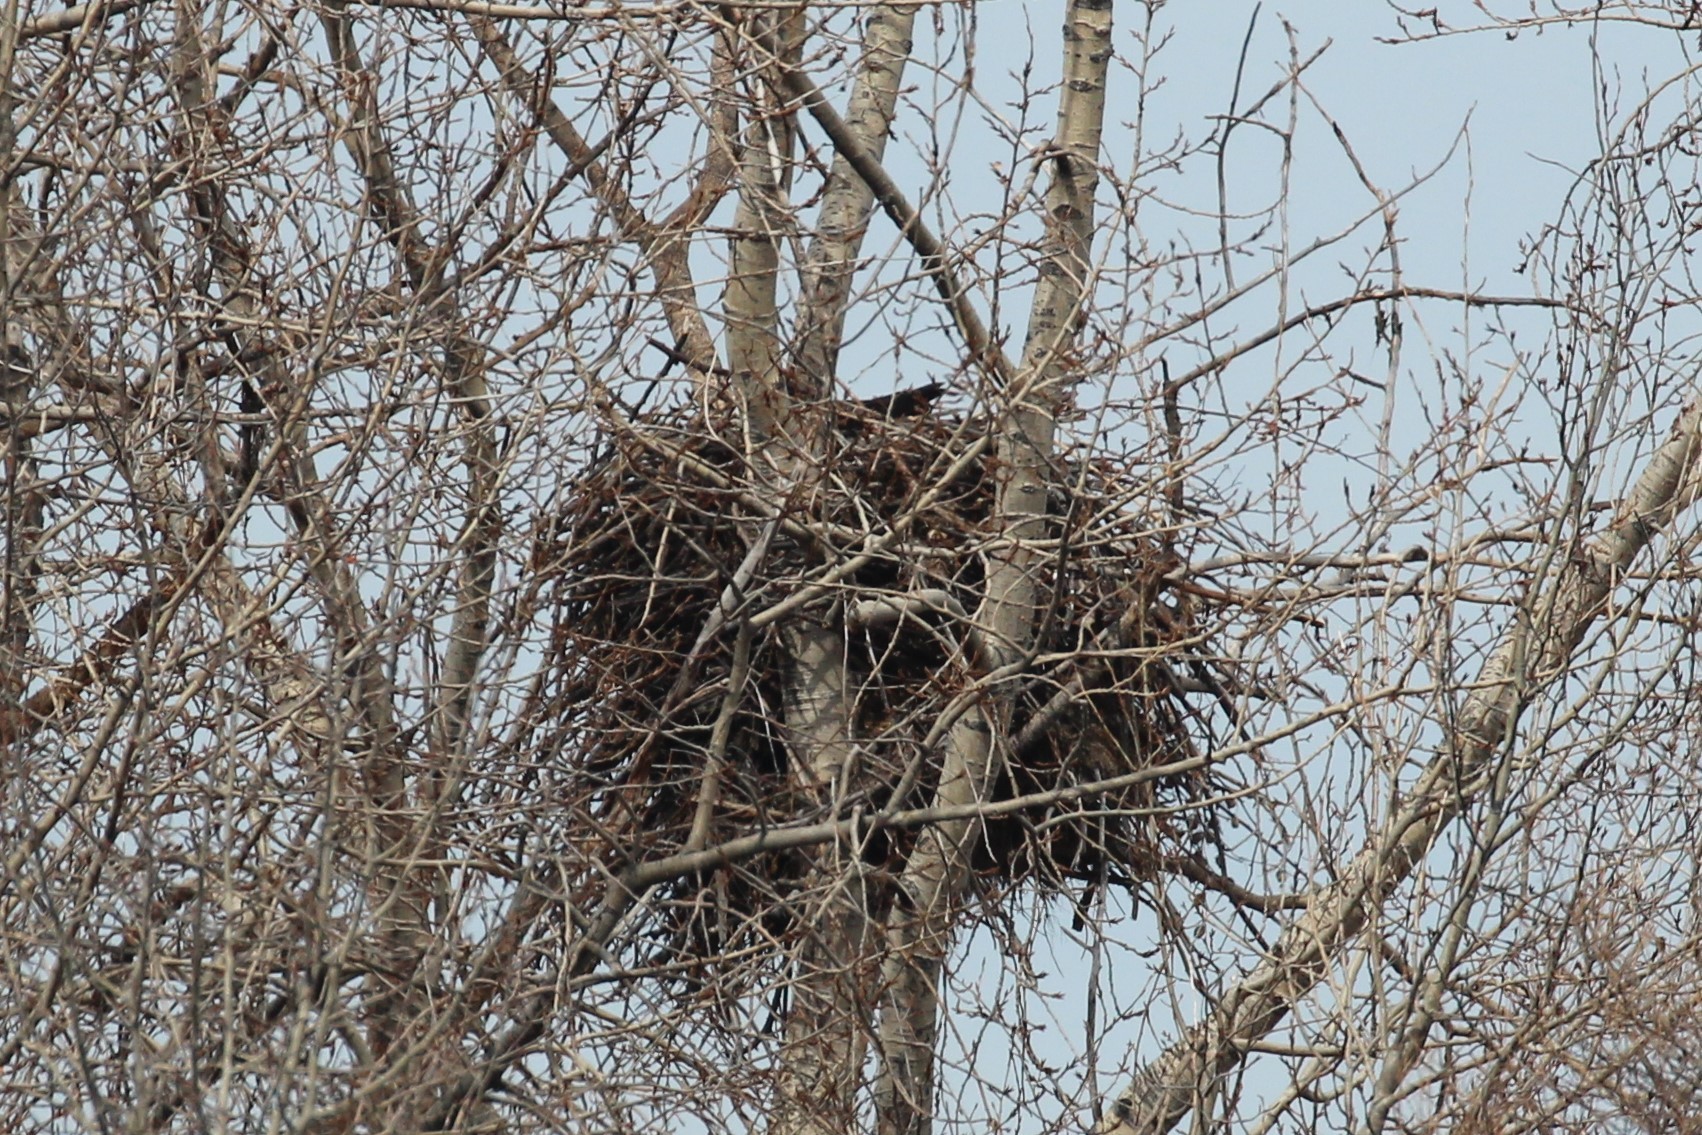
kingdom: Animalia
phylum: Chordata
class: Aves
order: Accipitriformes
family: Accipitridae
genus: Haliaeetus
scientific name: Haliaeetus leucocephalus
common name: Bald eagle
